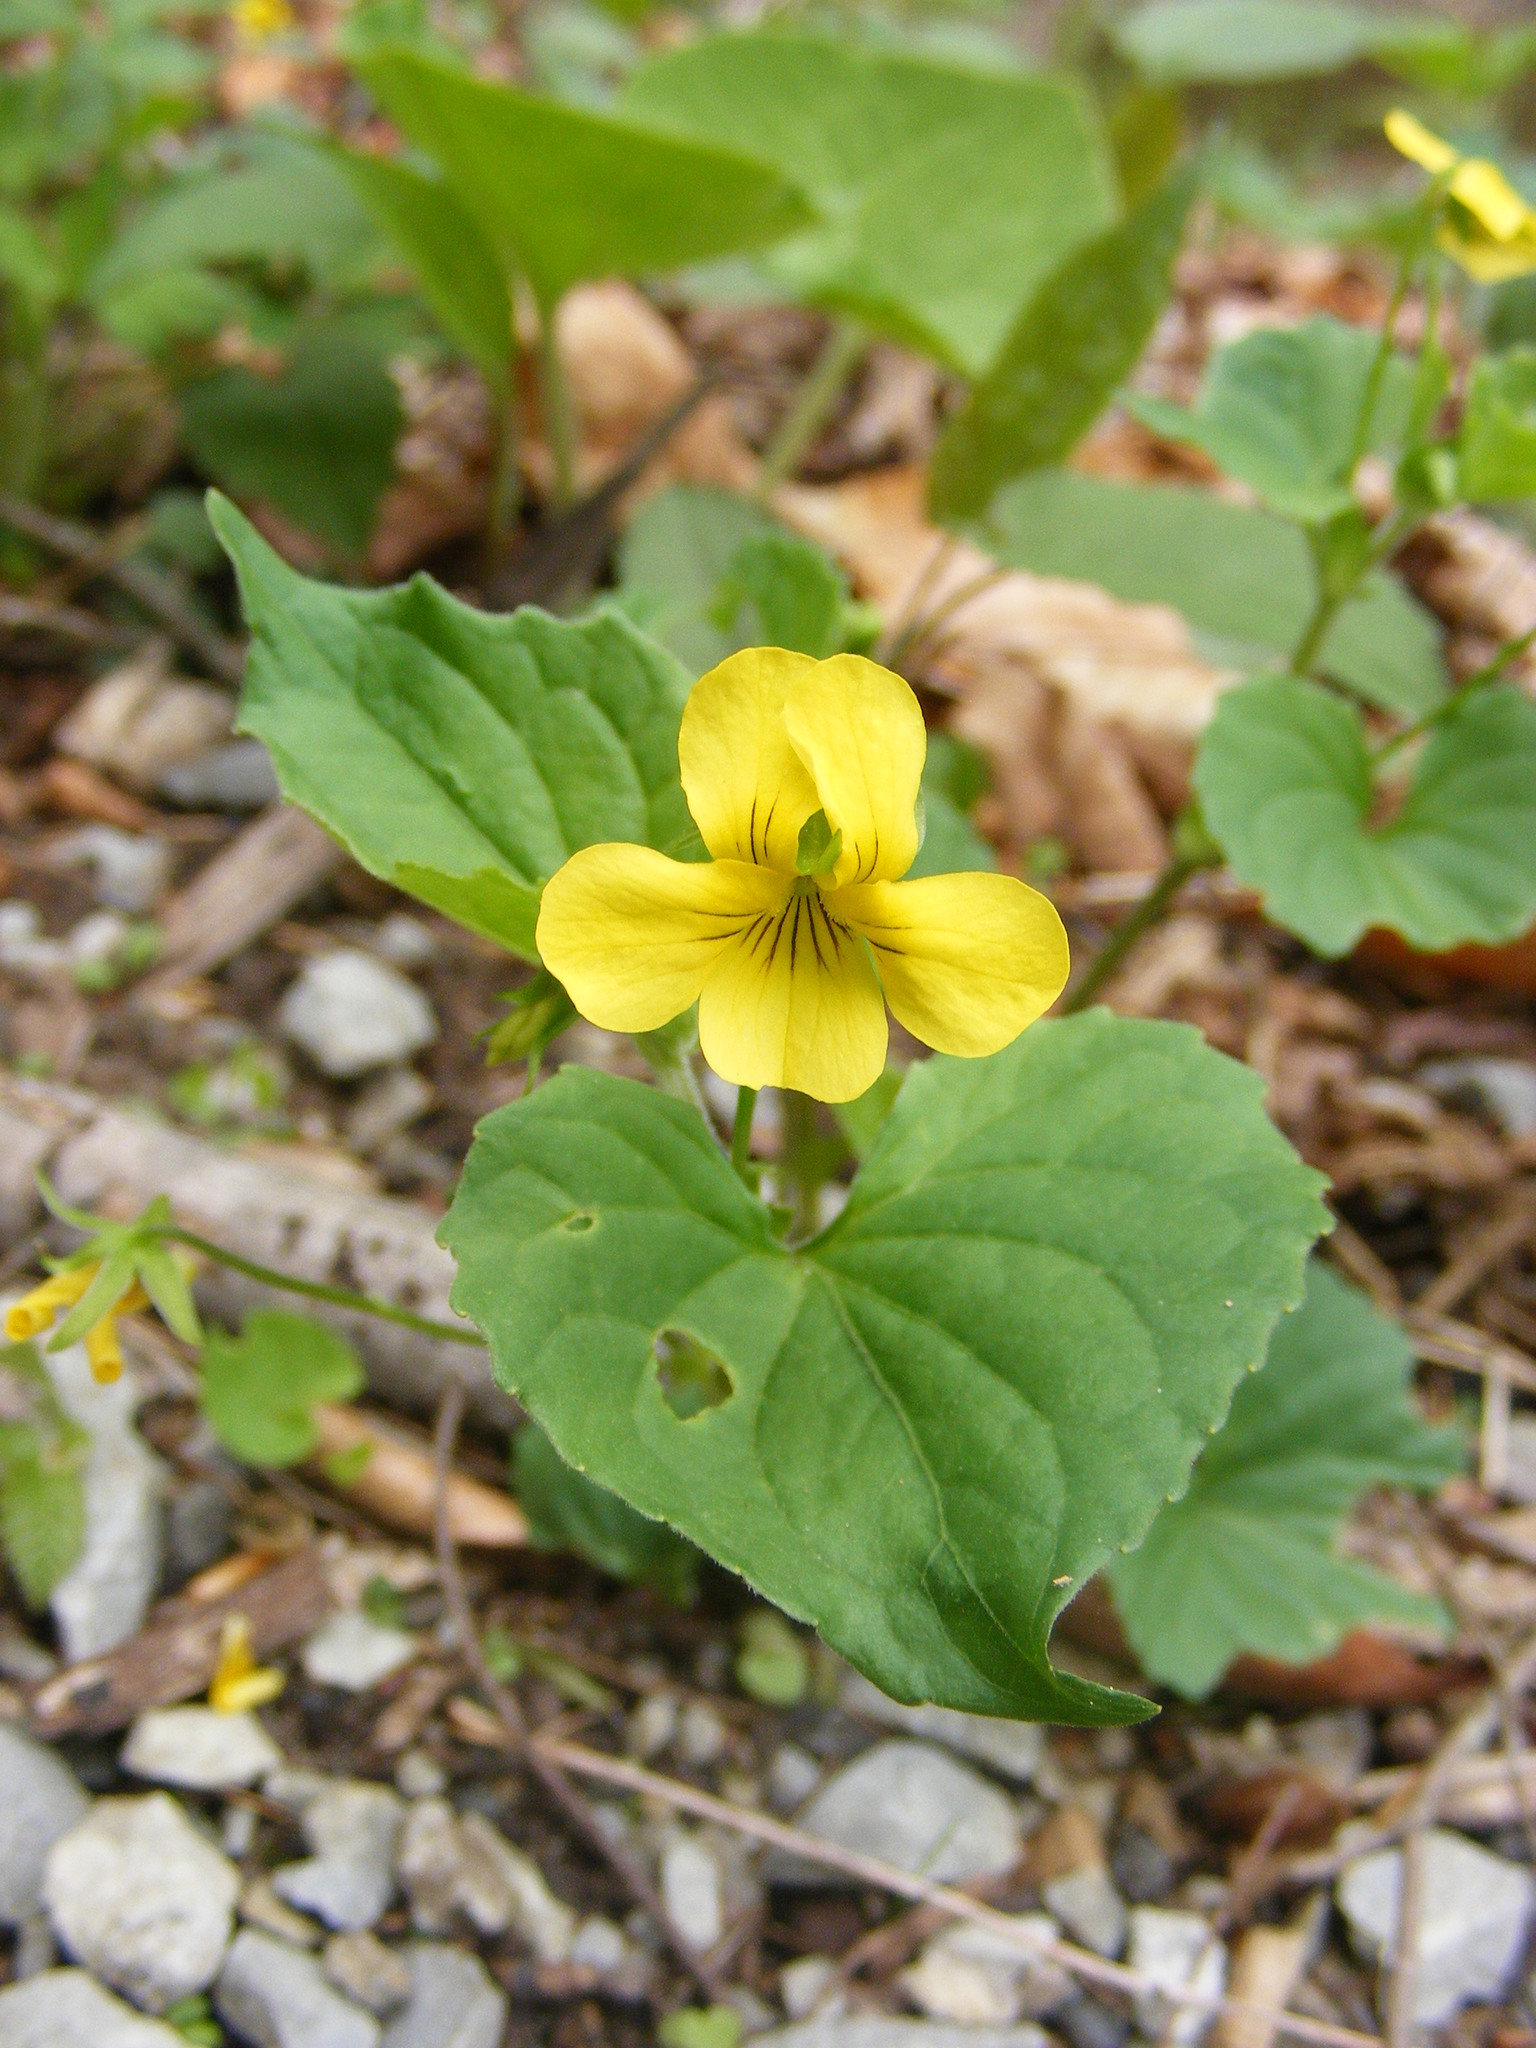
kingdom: Plantae
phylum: Tracheophyta
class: Magnoliopsida
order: Malpighiales
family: Violaceae
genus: Viola
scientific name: Viola eriocarpa
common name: Smooth yellow violet
